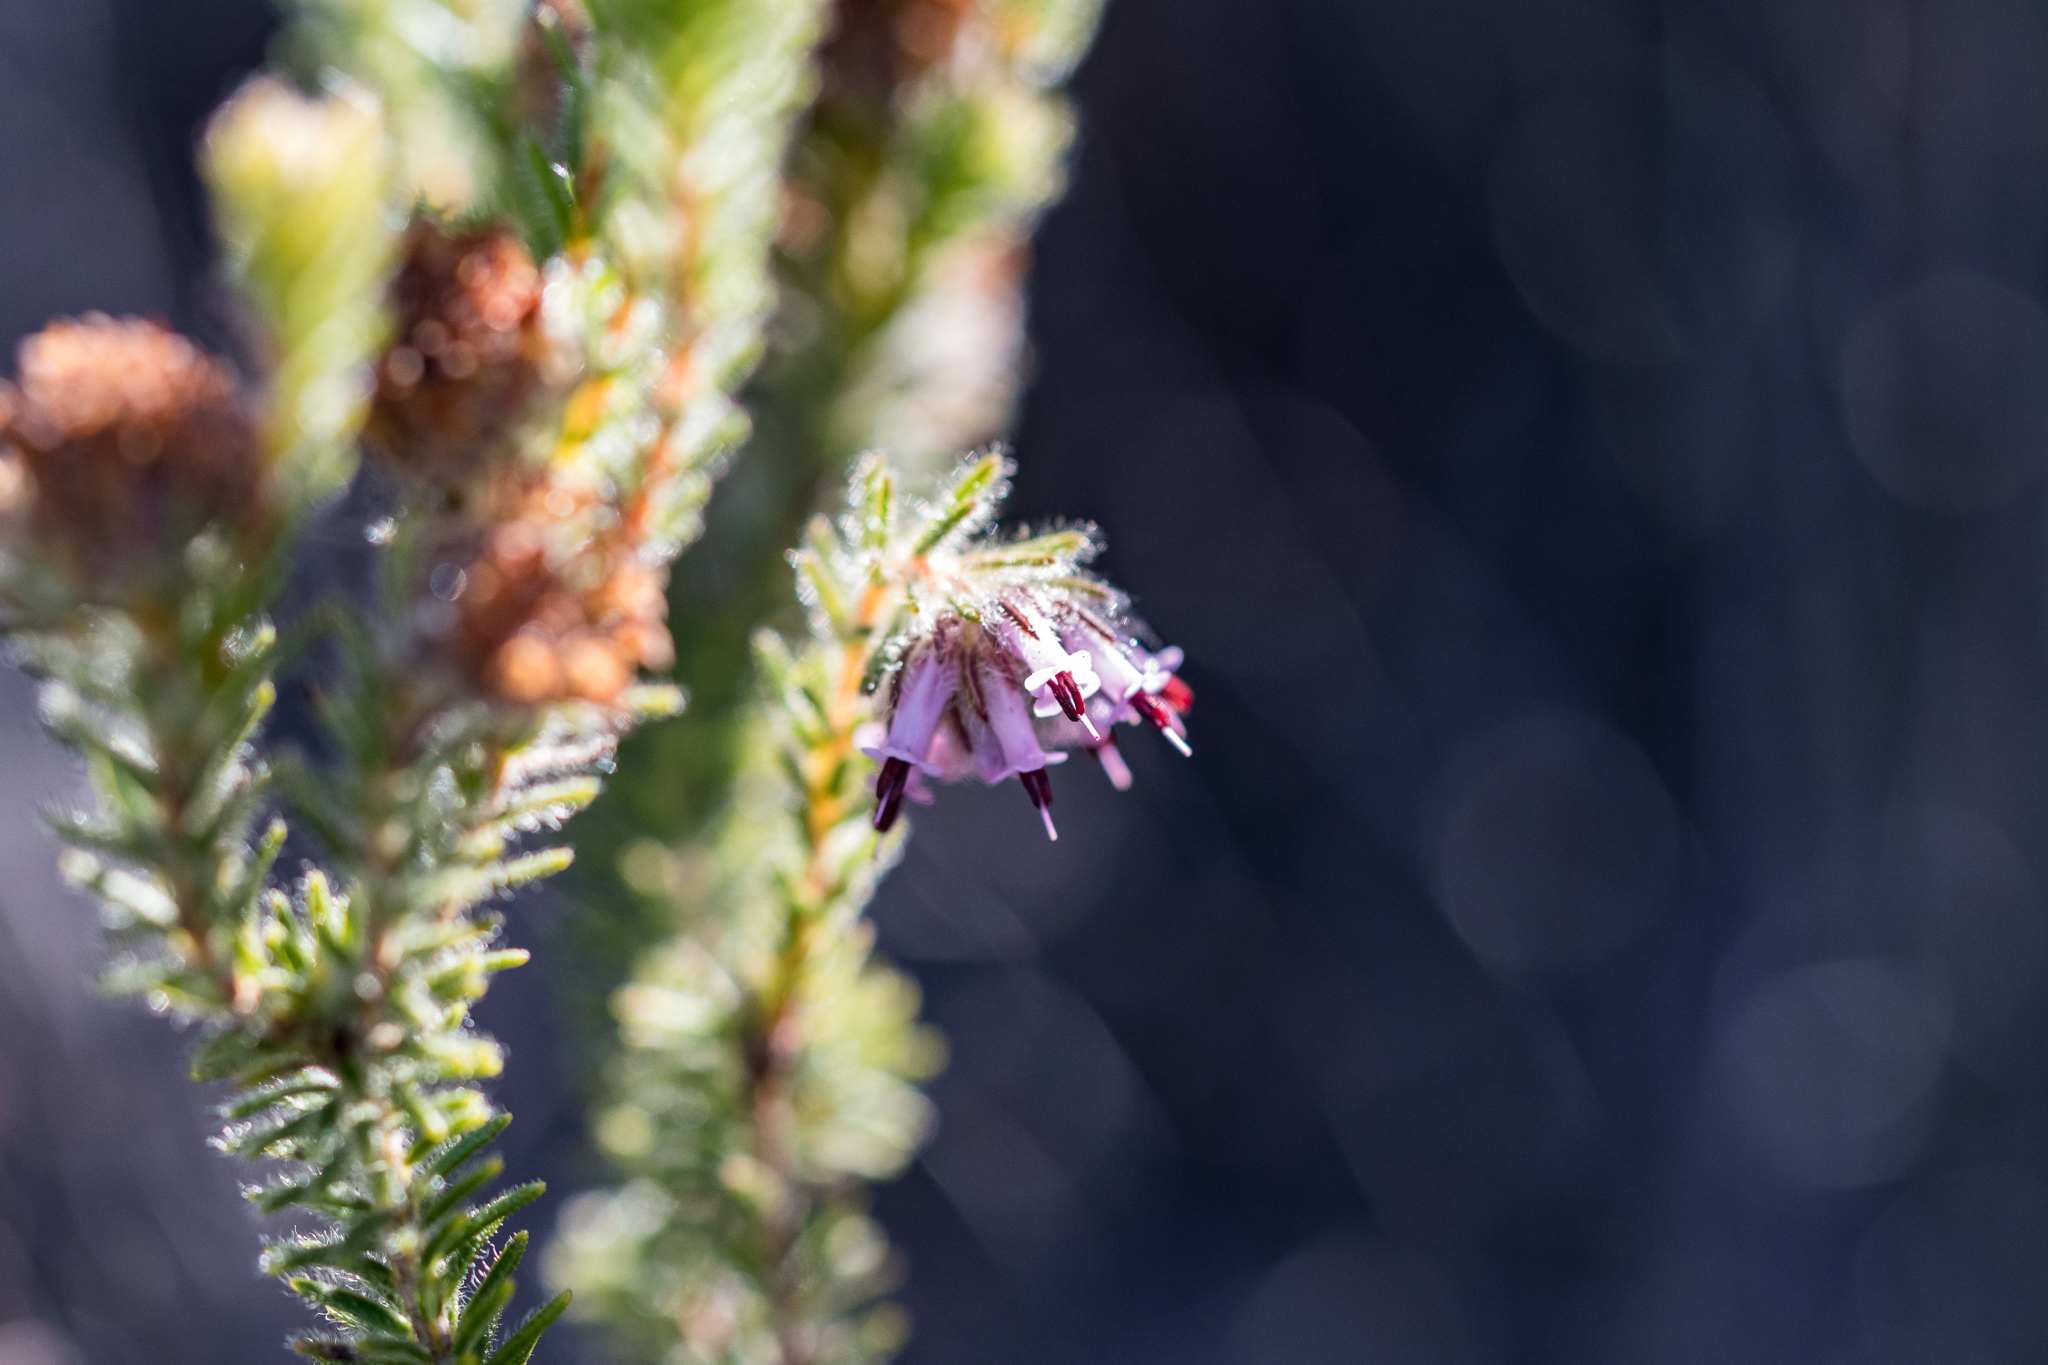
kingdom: Plantae
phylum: Tracheophyta
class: Magnoliopsida
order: Ericales
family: Ericaceae
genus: Erica
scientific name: Erica barbigeroides
